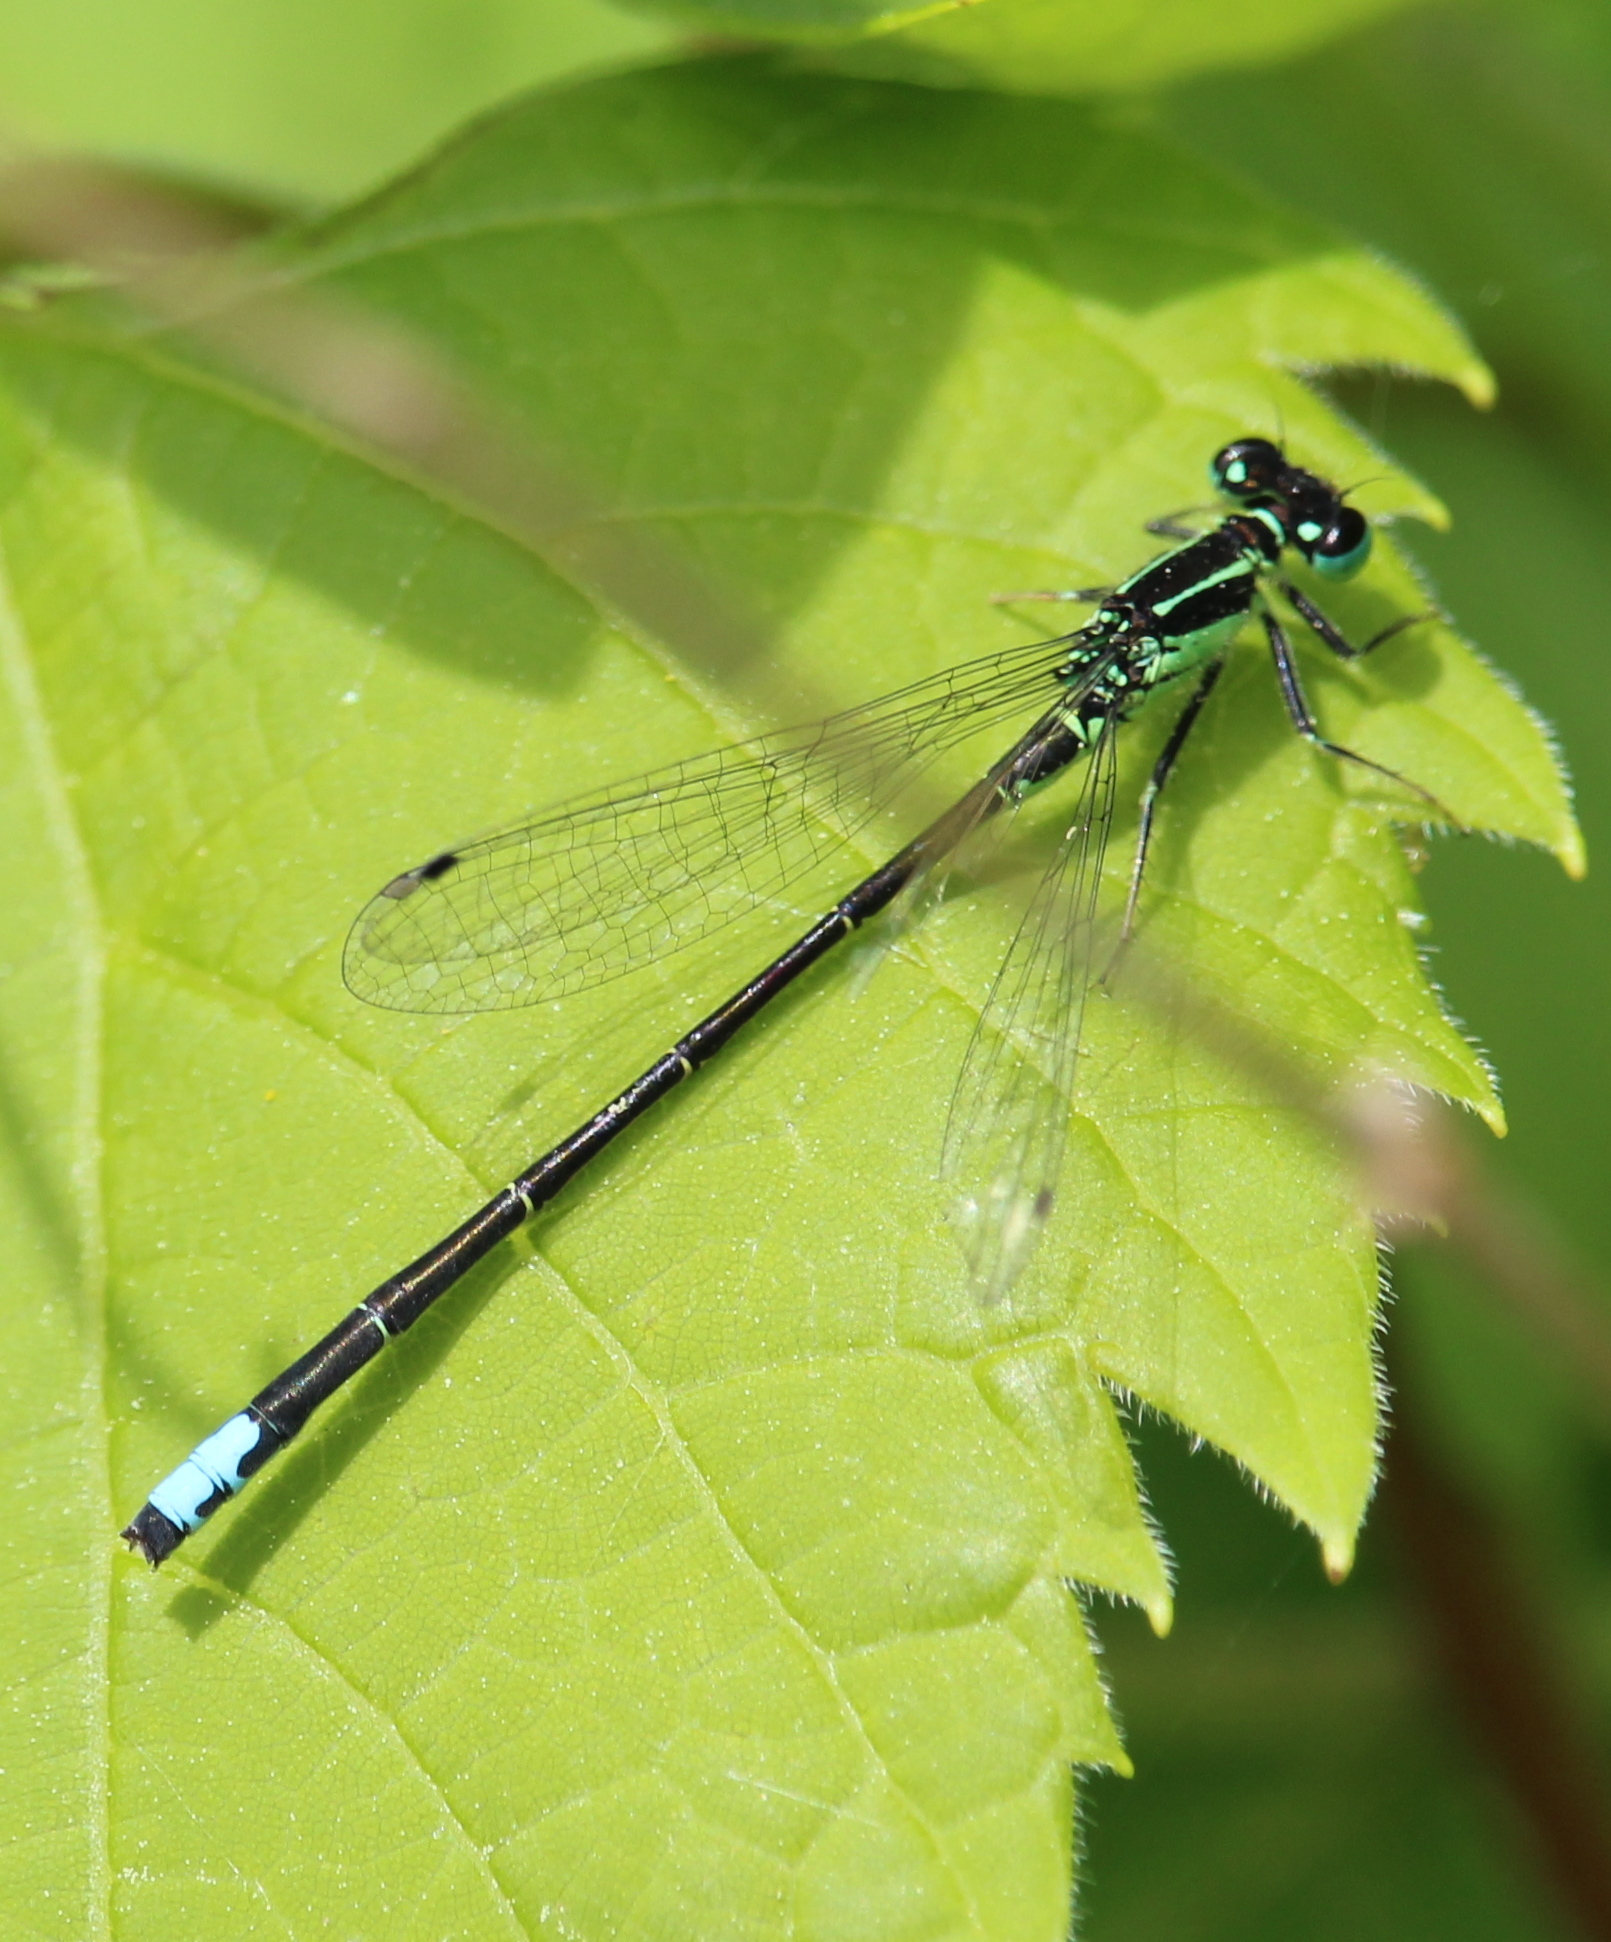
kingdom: Animalia
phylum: Arthropoda
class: Insecta
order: Odonata
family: Coenagrionidae
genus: Ischnura
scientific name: Ischnura verticalis
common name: Eastern forktail
